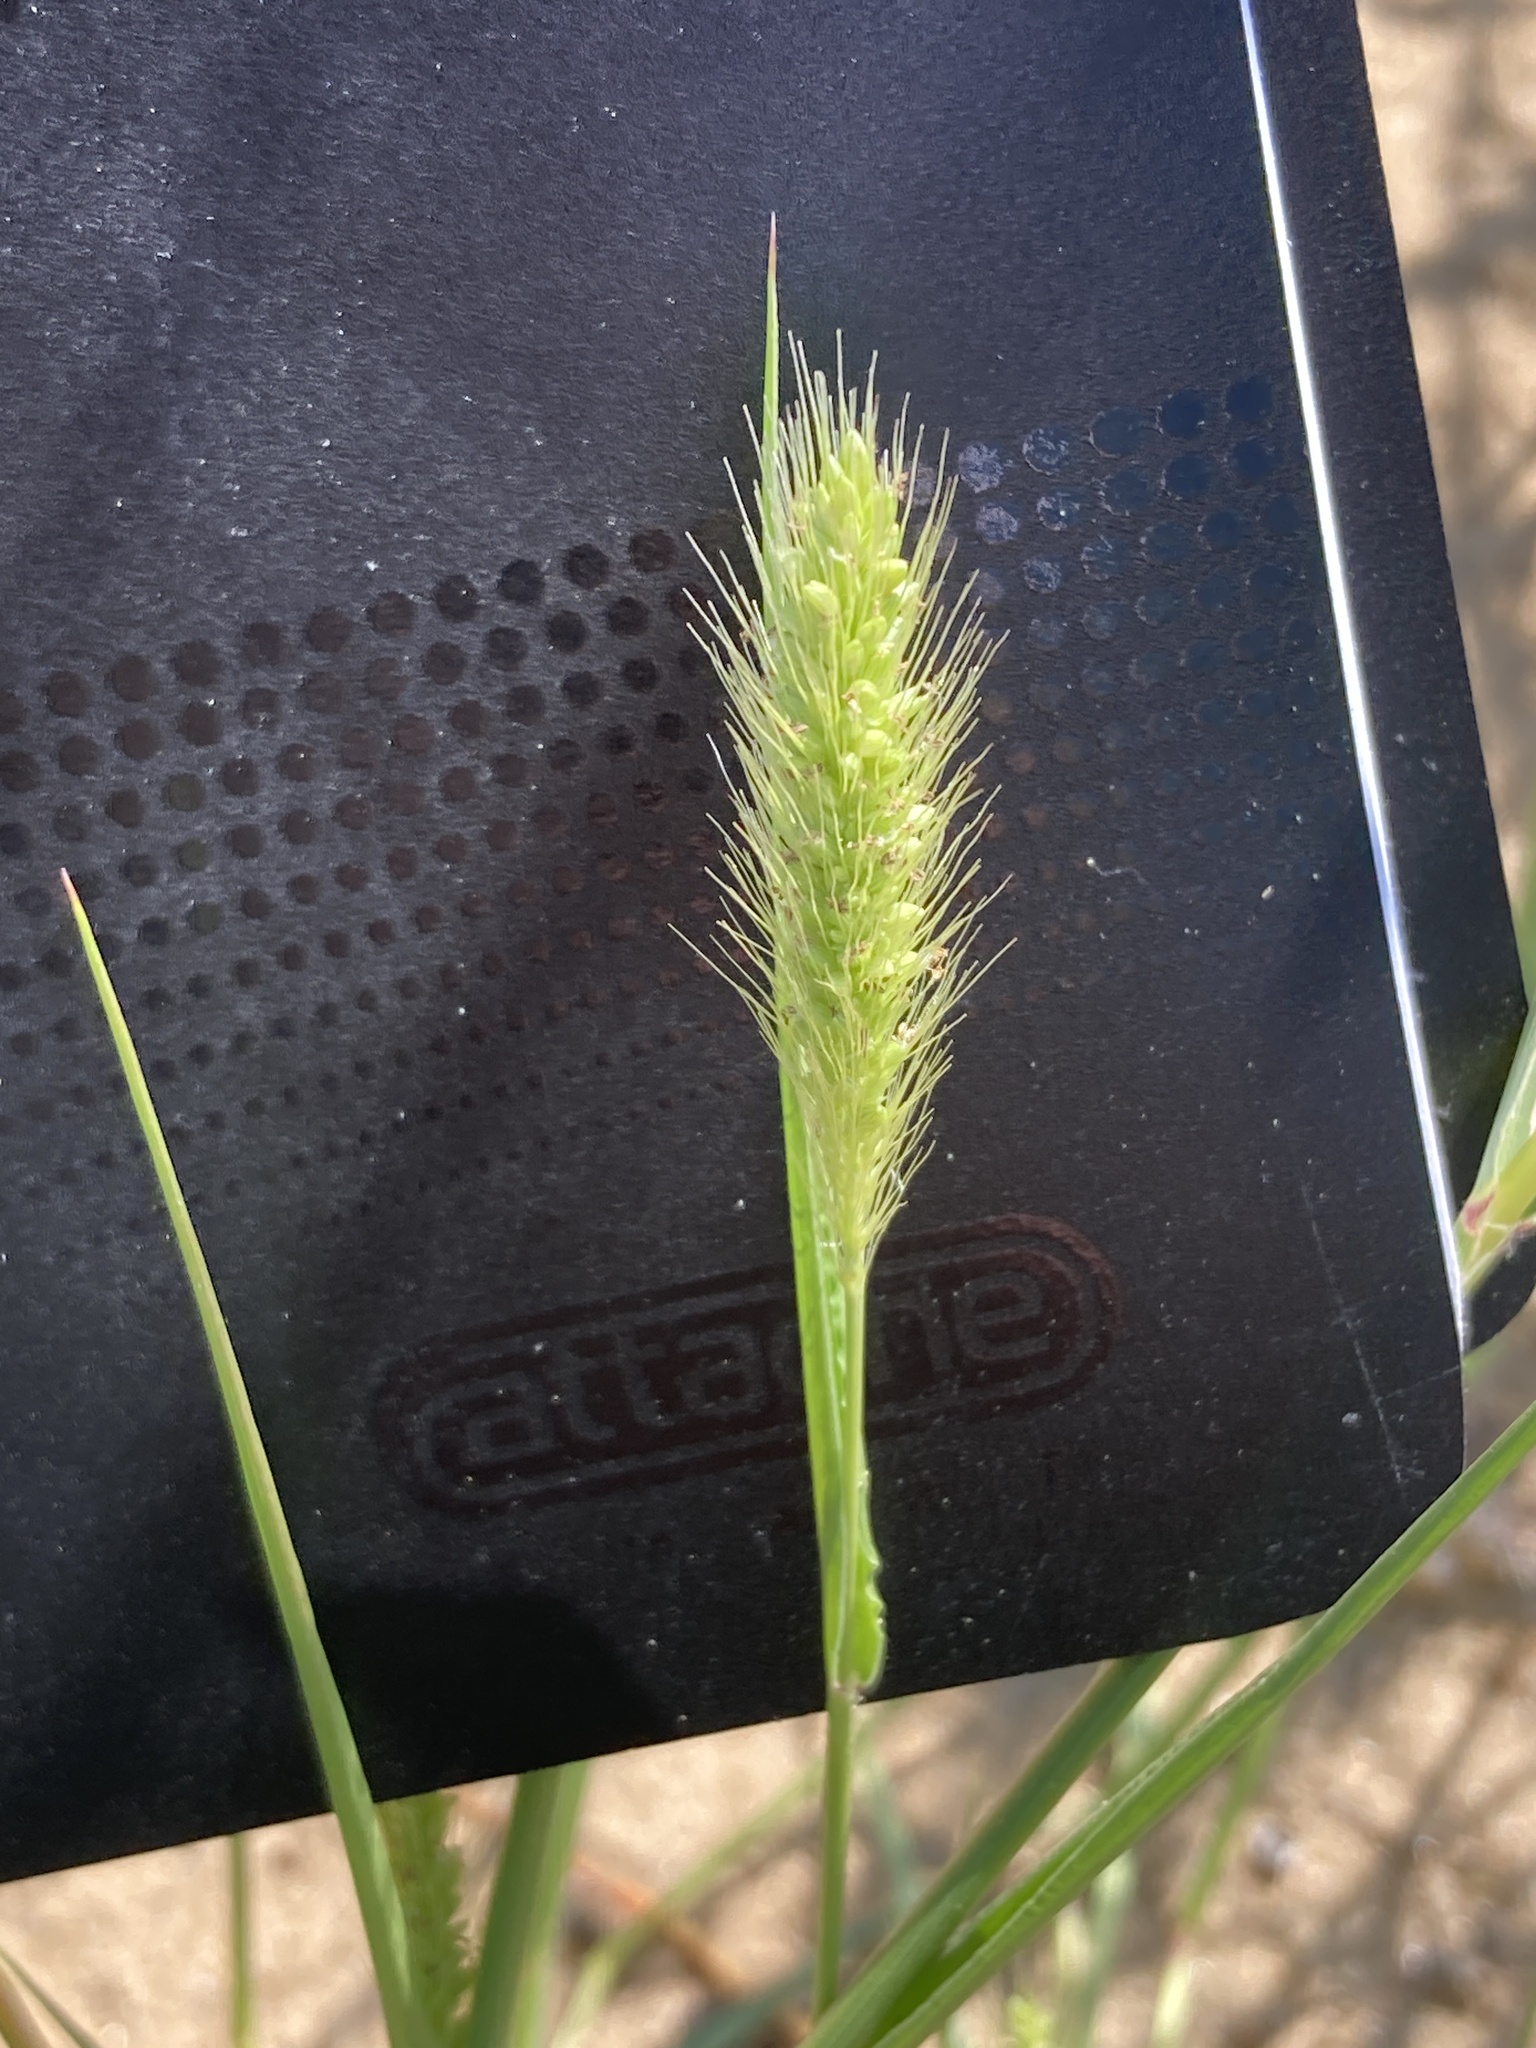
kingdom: Plantae
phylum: Tracheophyta
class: Liliopsida
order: Poales
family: Poaceae
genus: Setaria
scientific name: Setaria viridis
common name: Green bristlegrass
